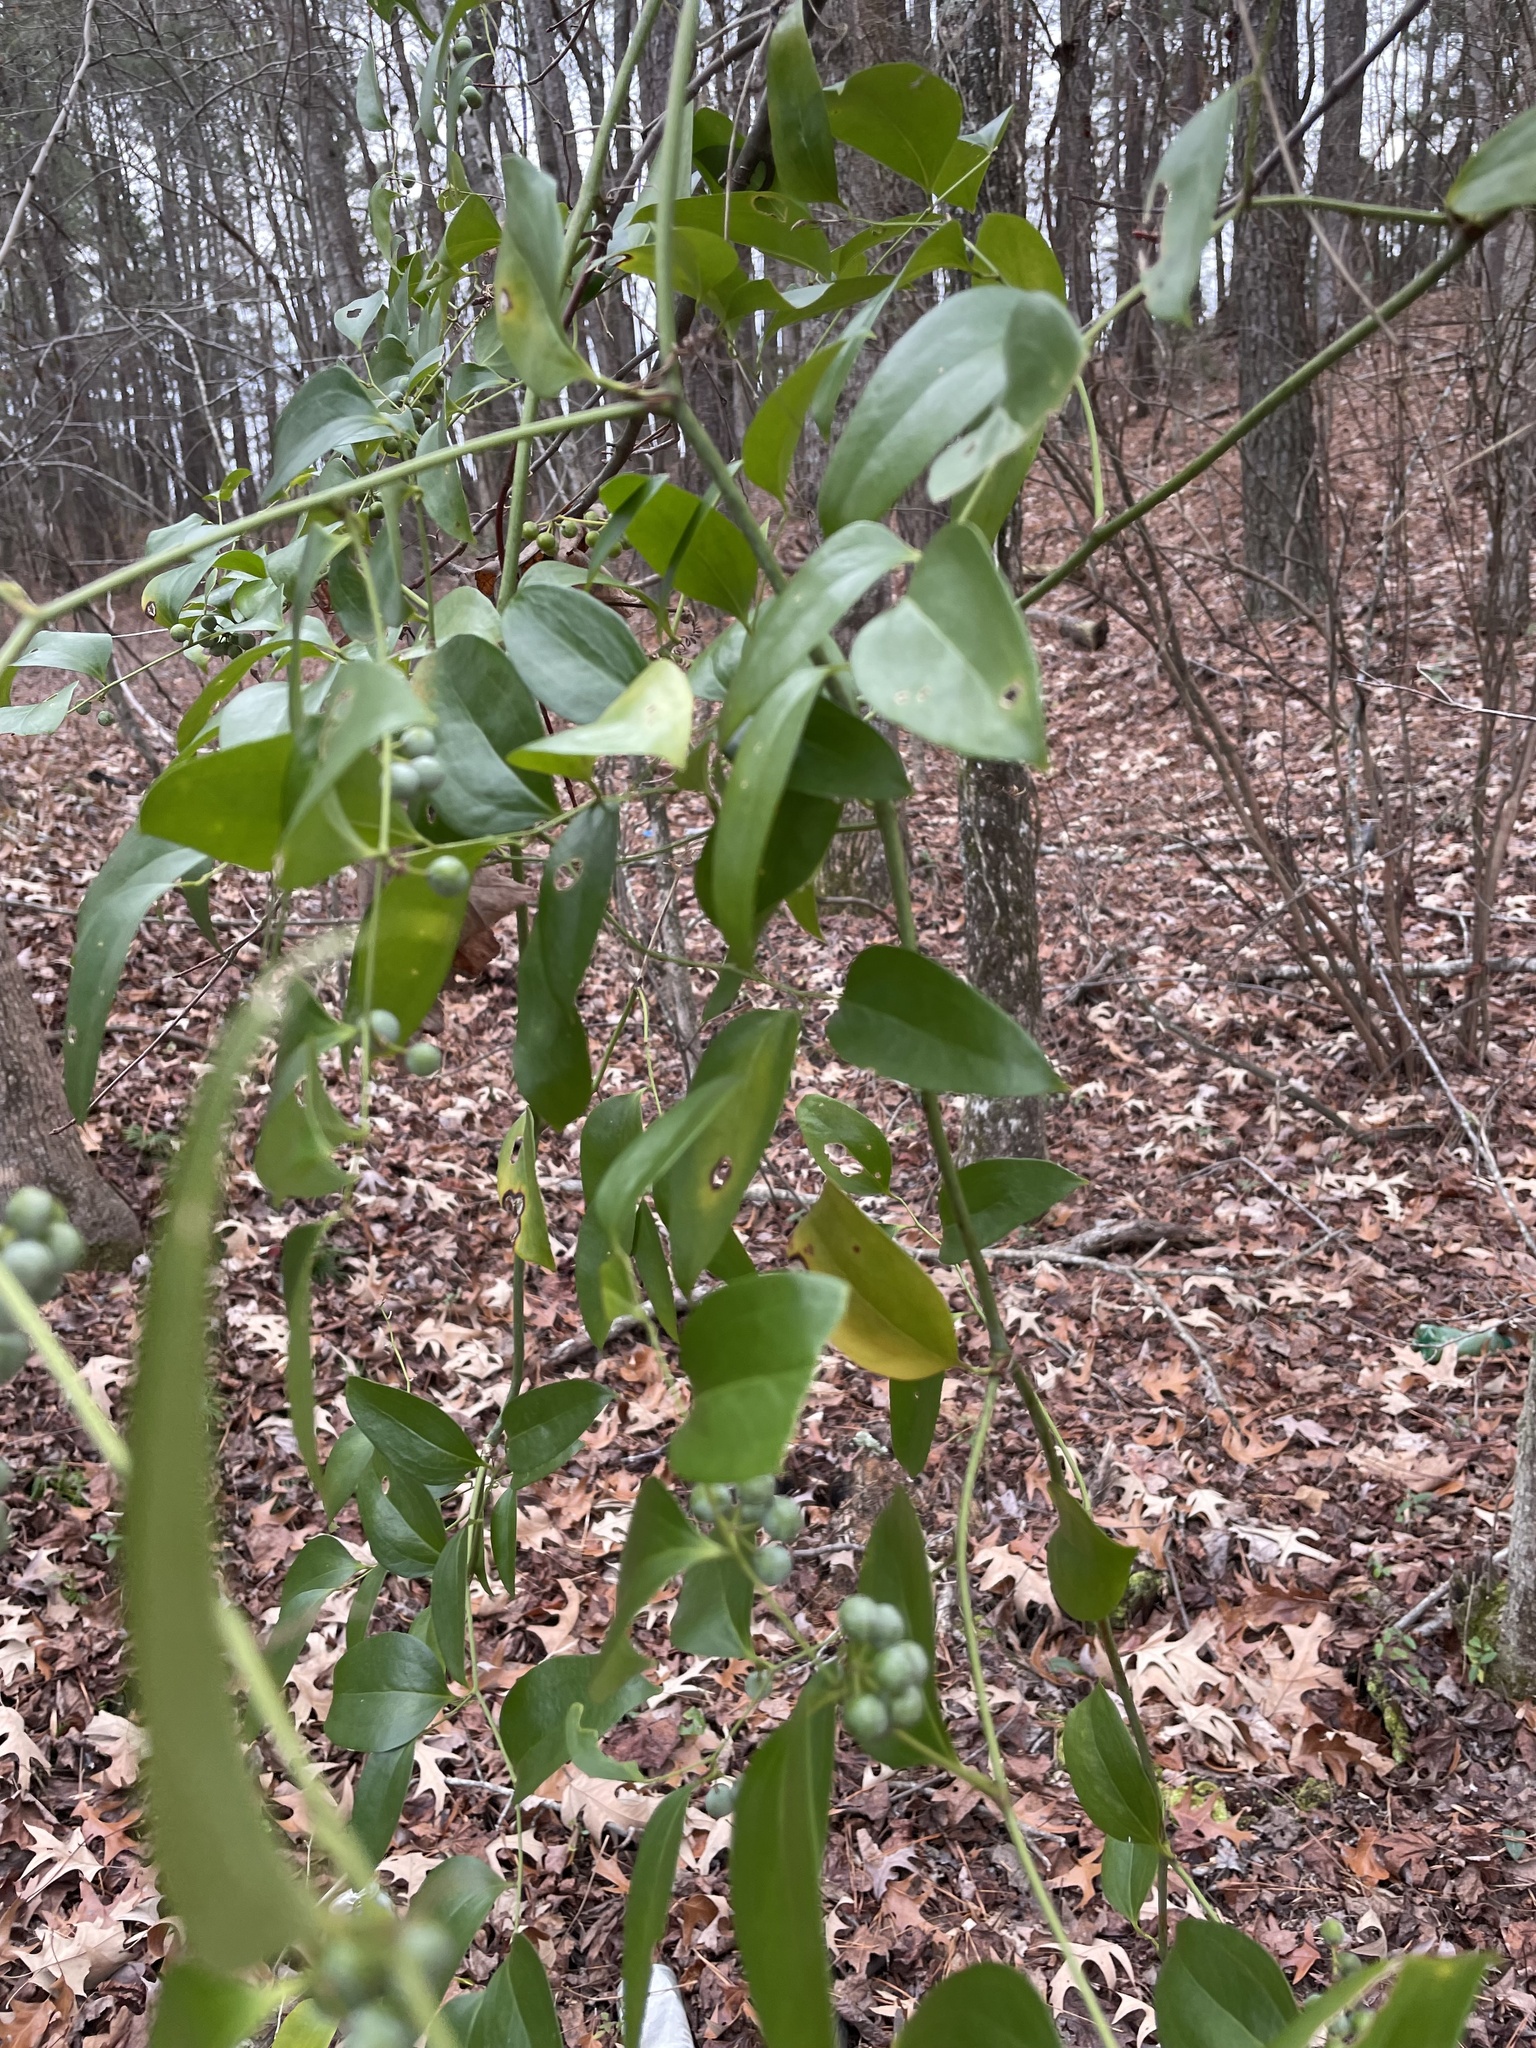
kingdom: Plantae
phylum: Tracheophyta
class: Liliopsida
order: Liliales
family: Smilacaceae
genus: Smilax
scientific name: Smilax maritima
